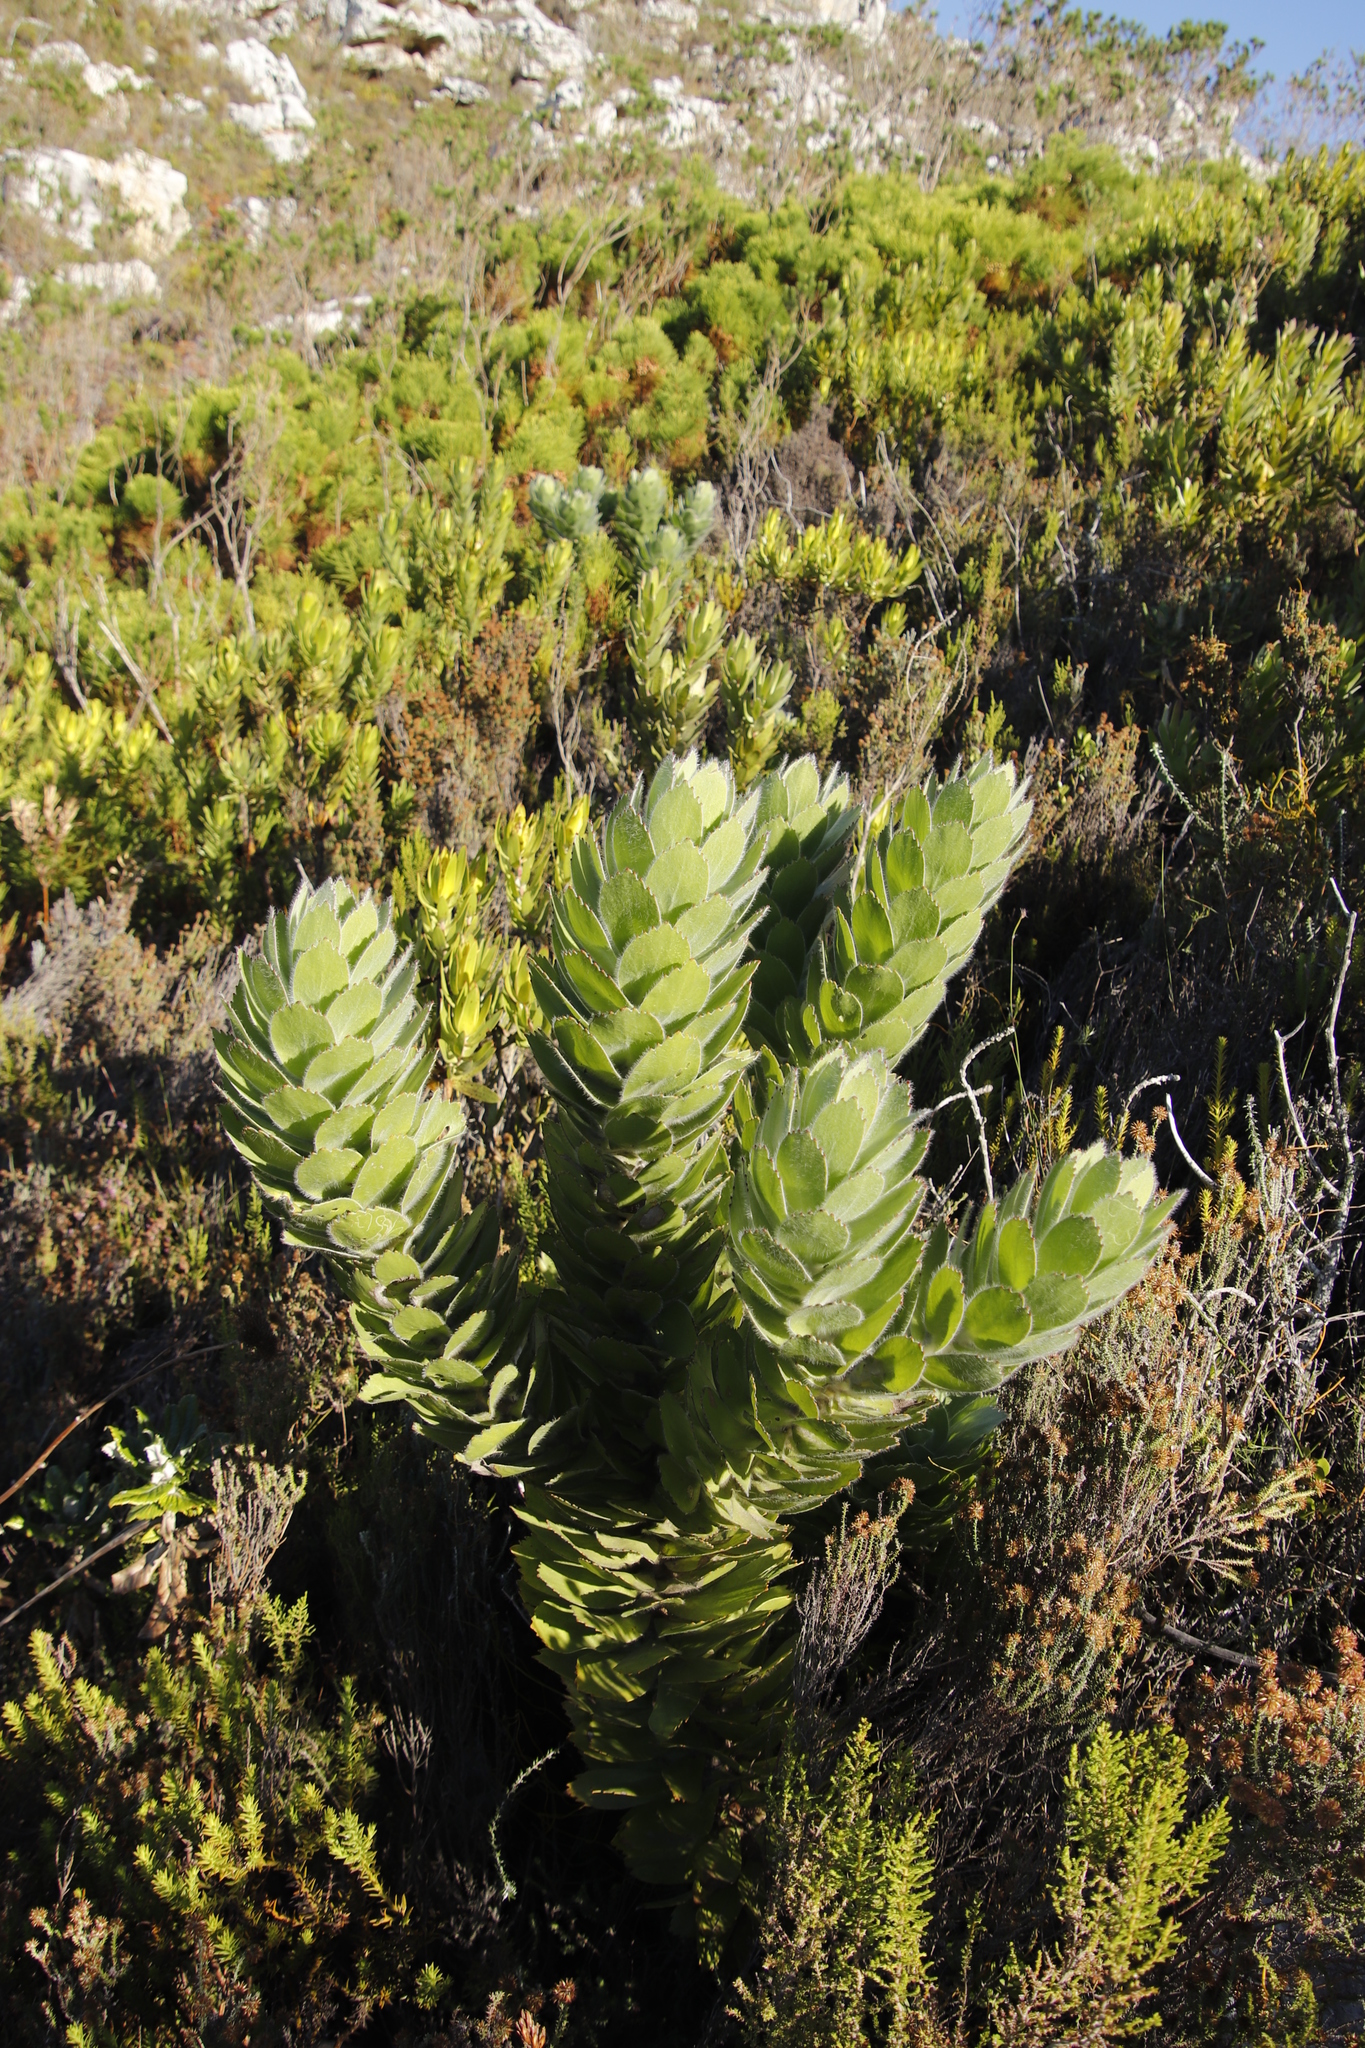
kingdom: Plantae
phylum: Tracheophyta
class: Magnoliopsida
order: Proteales
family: Proteaceae
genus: Leucospermum
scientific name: Leucospermum conocarpodendron
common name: Tree pincushion
